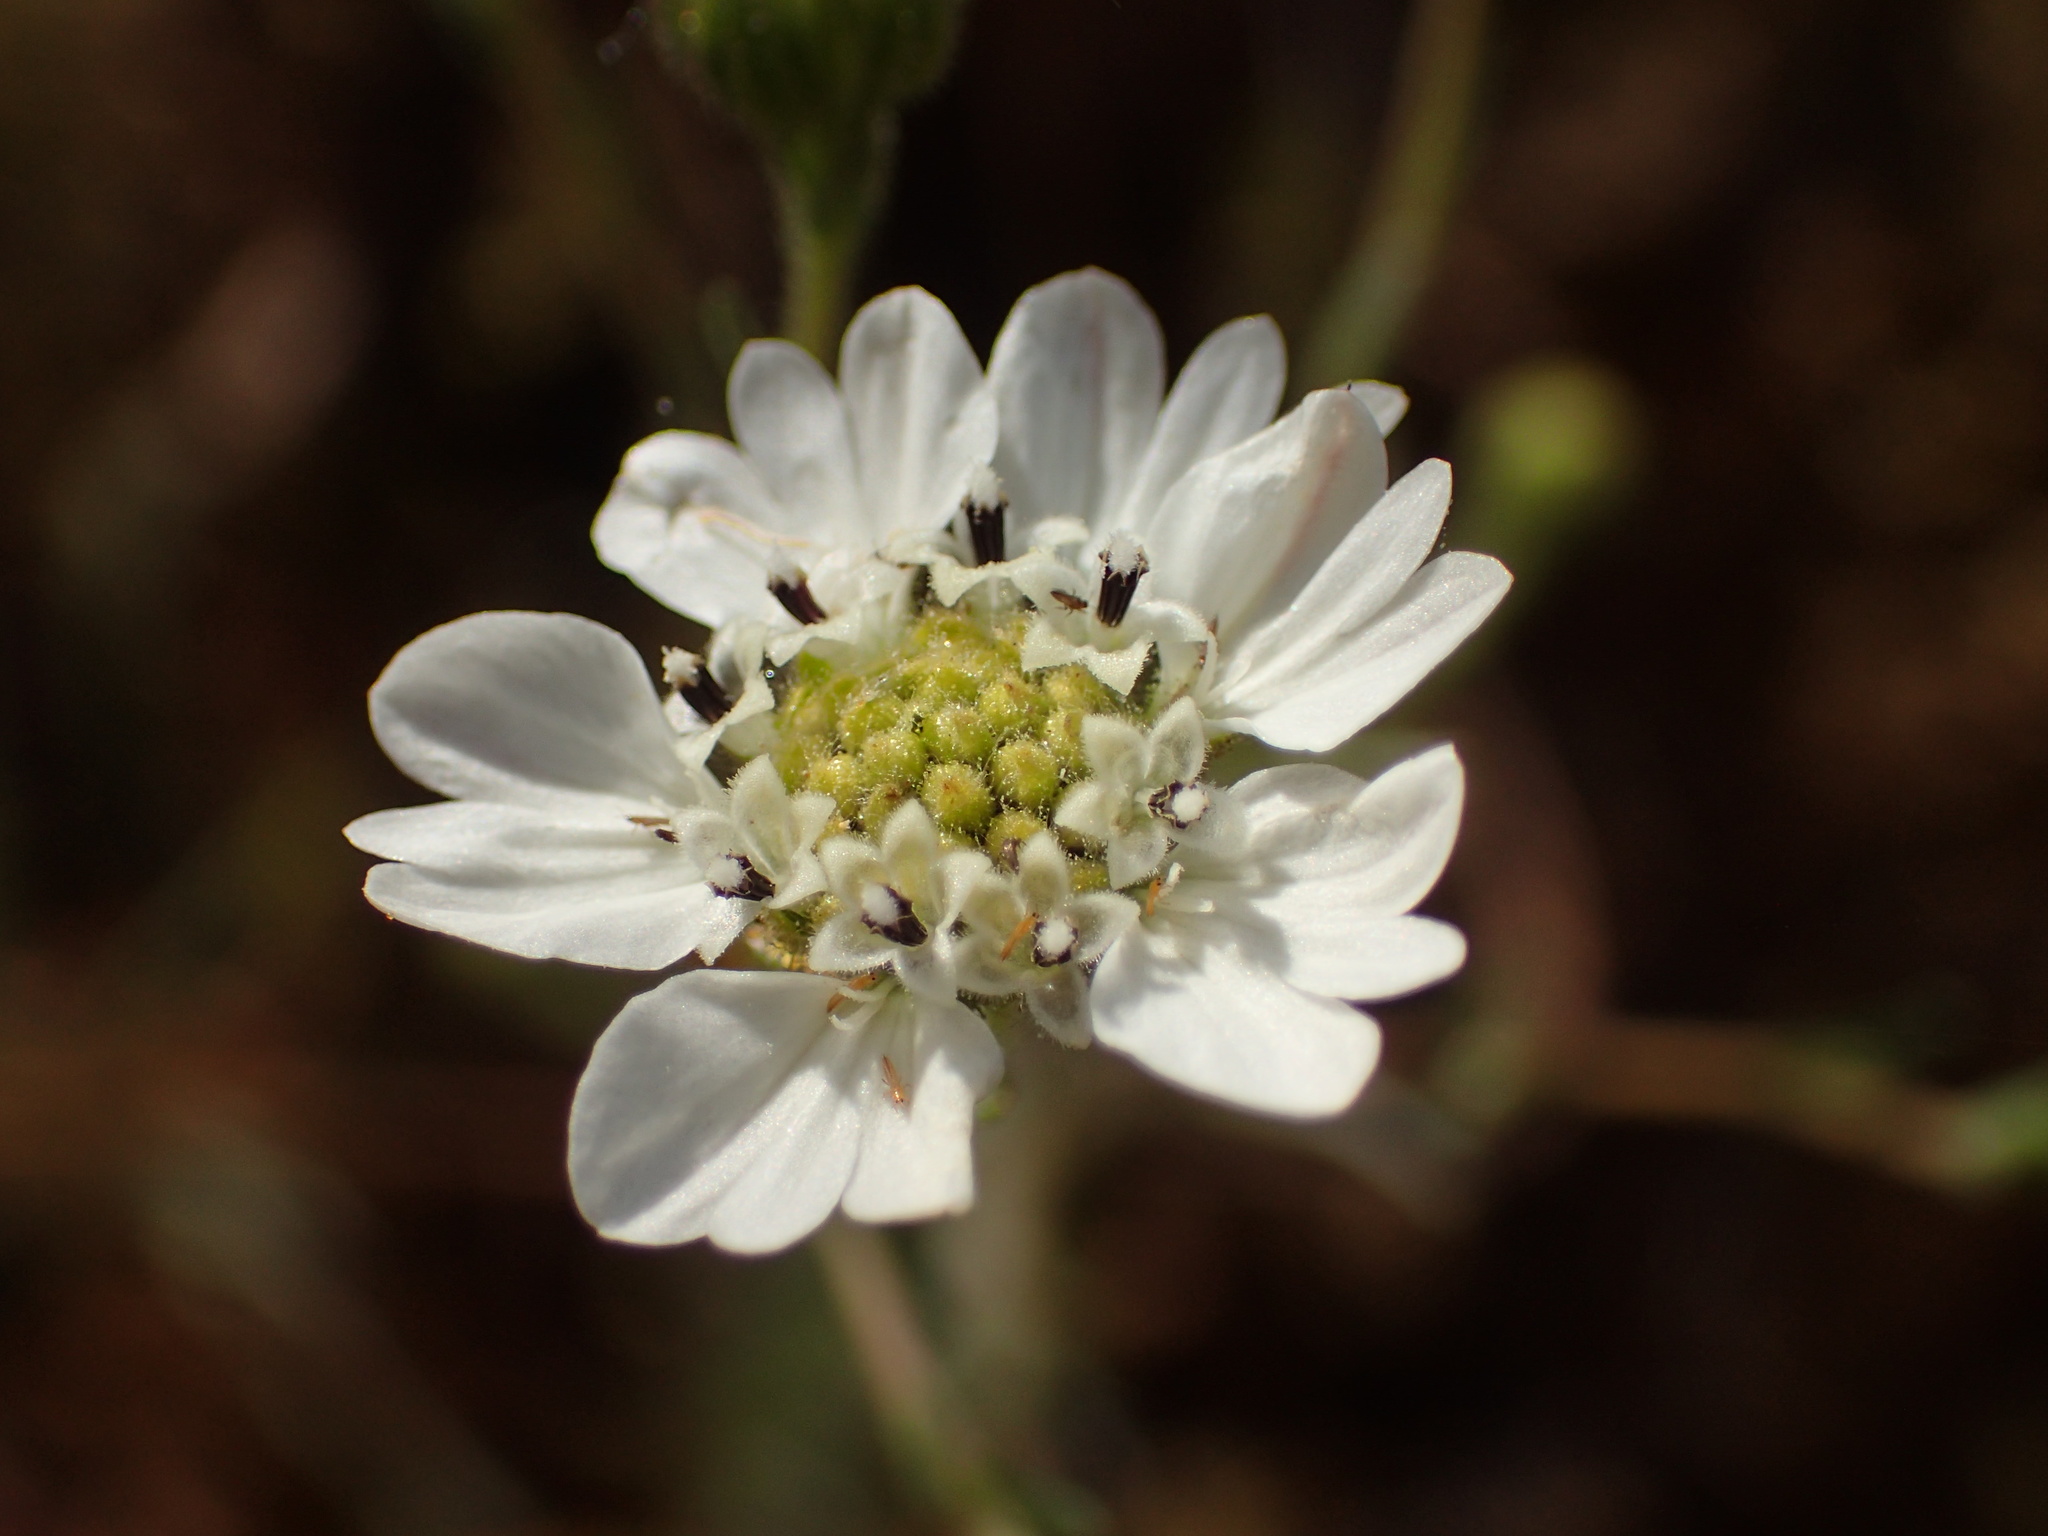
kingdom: Plantae
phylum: Tracheophyta
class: Magnoliopsida
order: Asterales
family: Asteraceae
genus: Hemizonia
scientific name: Hemizonia congesta
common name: Hayfield tarweed
